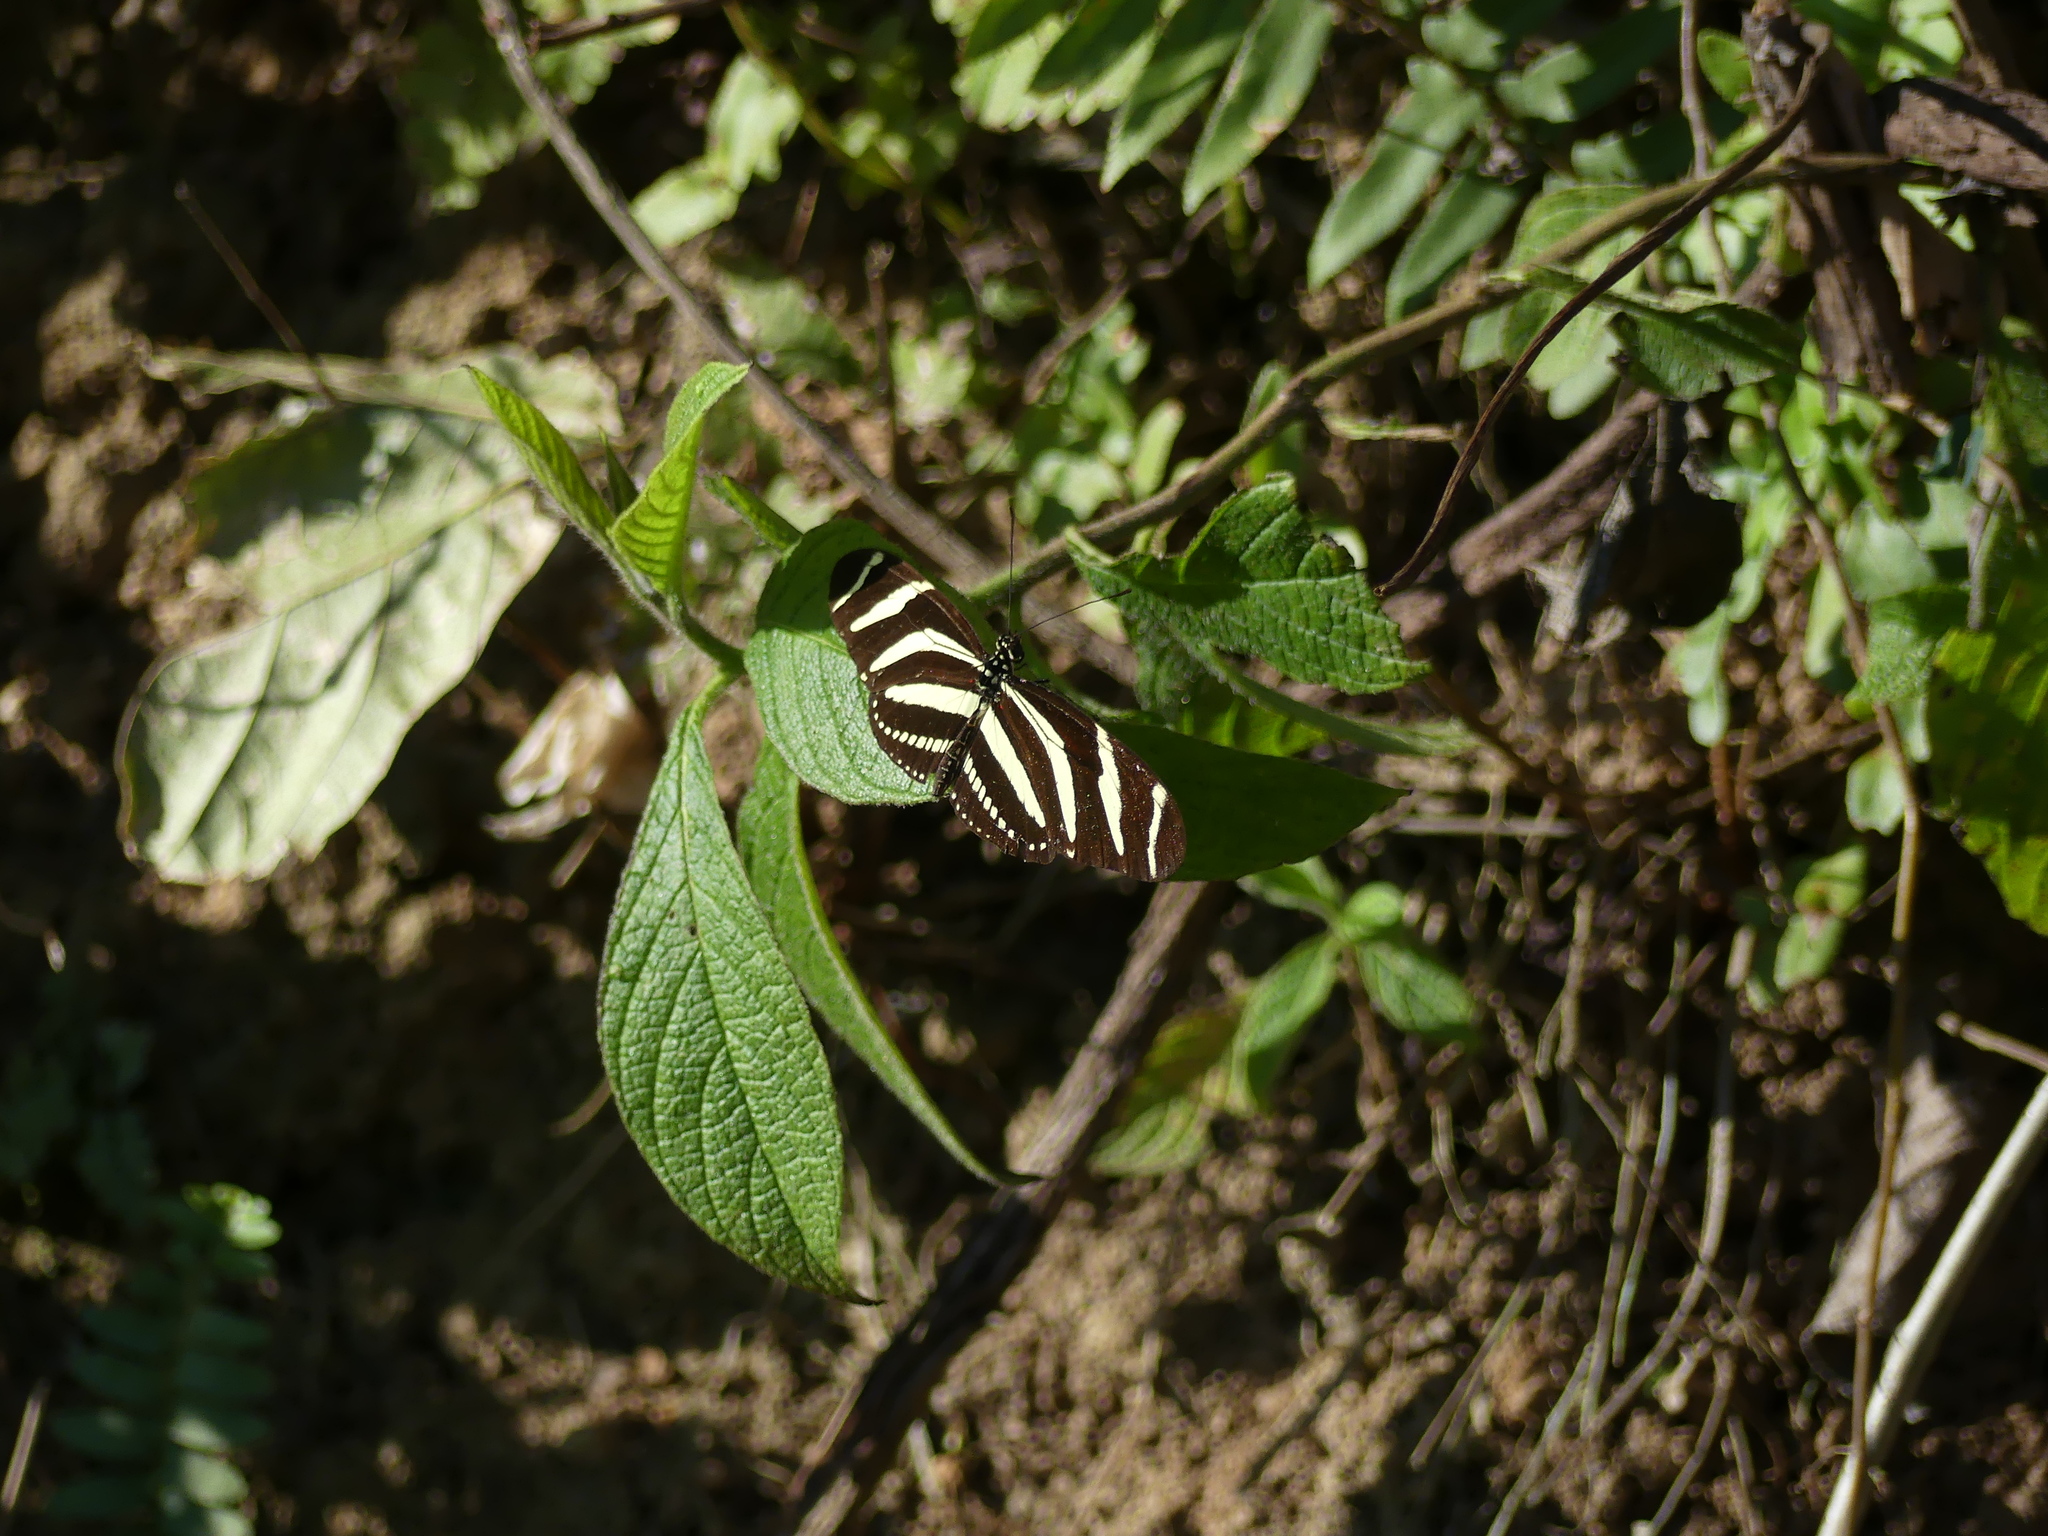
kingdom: Animalia
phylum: Arthropoda
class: Insecta
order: Lepidoptera
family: Nymphalidae
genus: Heliconius
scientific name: Heliconius charithonia
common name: Zebra long wing
